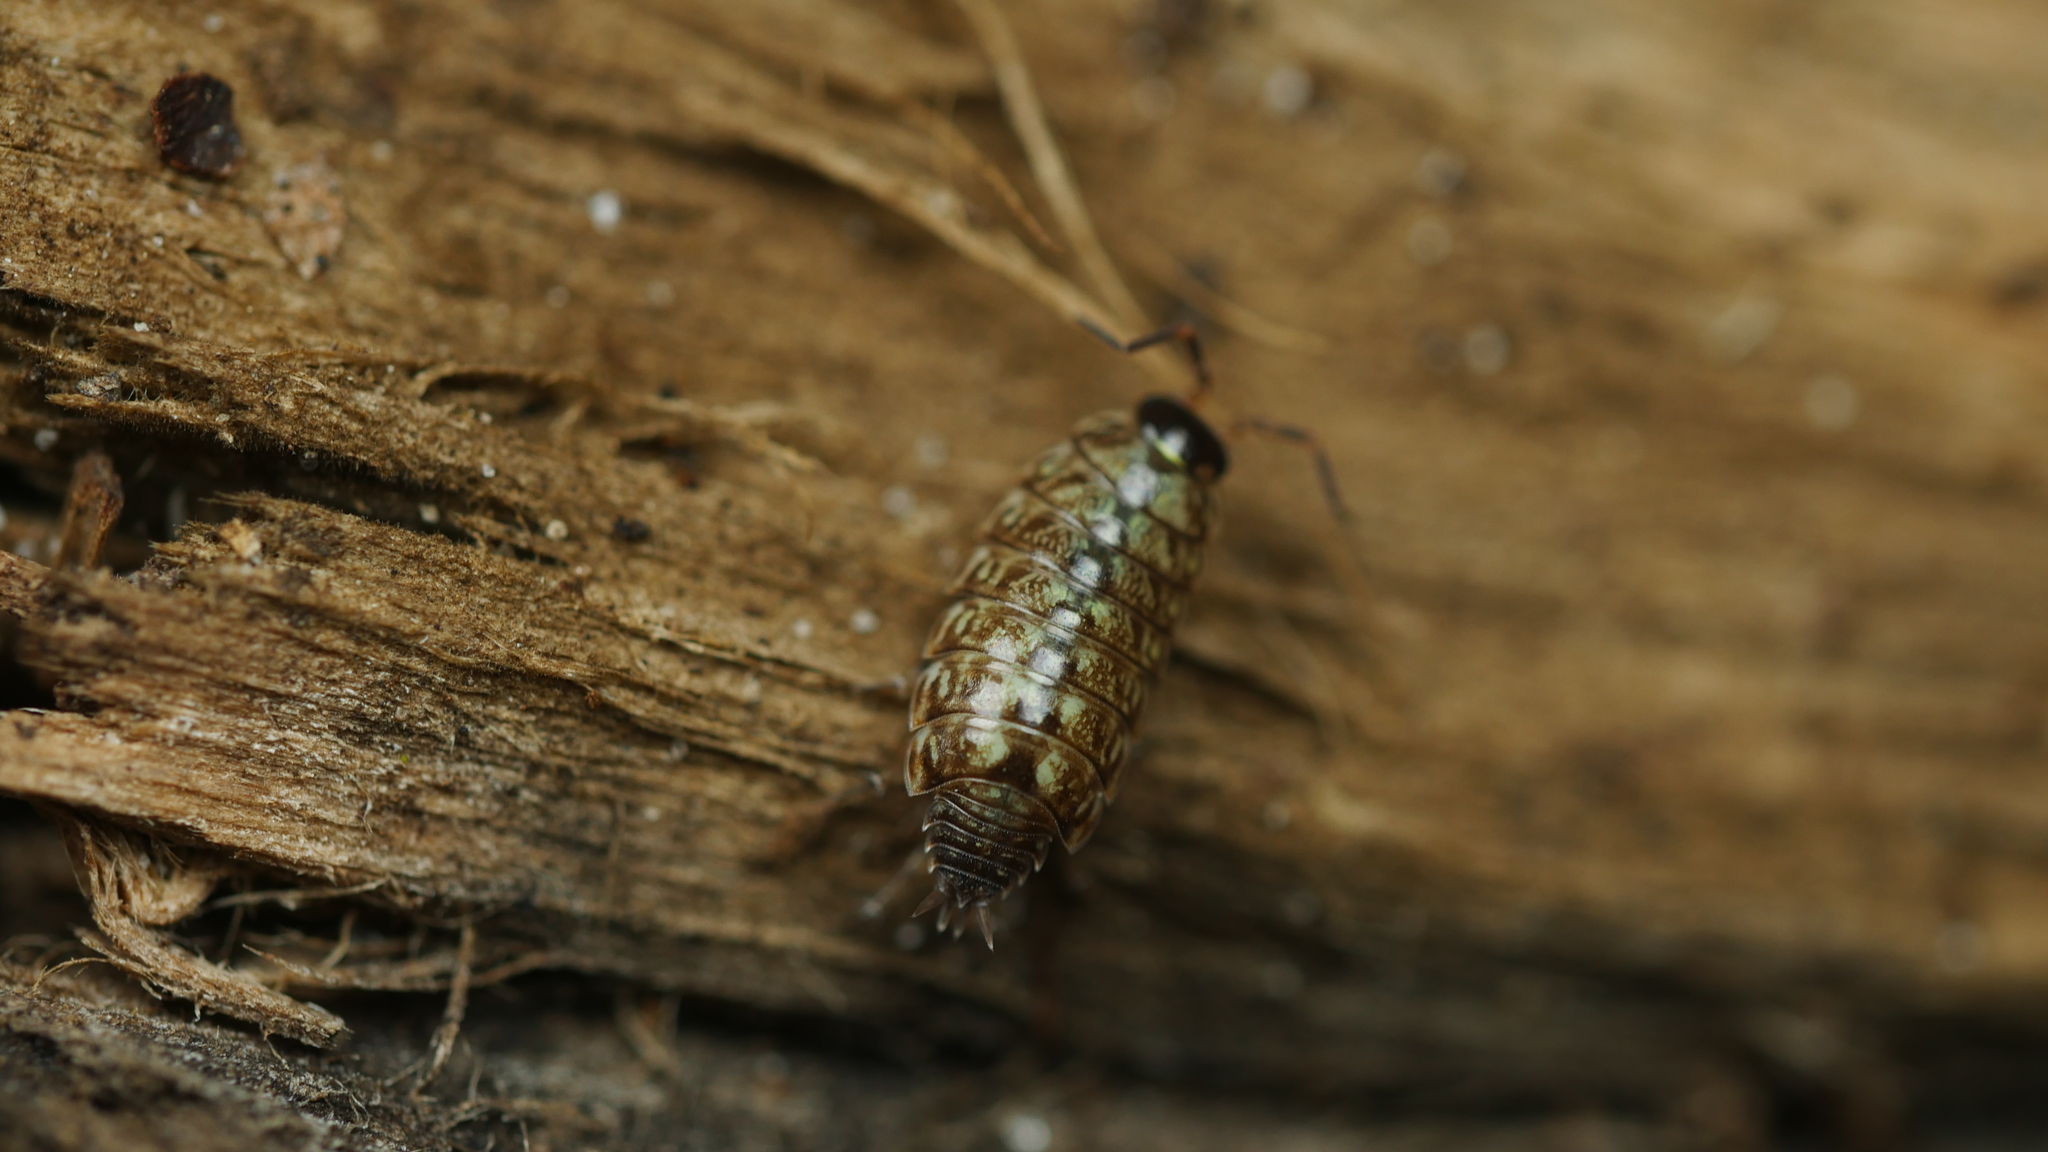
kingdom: Animalia
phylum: Arthropoda
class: Malacostraca
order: Isopoda
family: Philosciidae
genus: Philoscia
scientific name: Philoscia muscorum
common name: Common striped woodlouse
